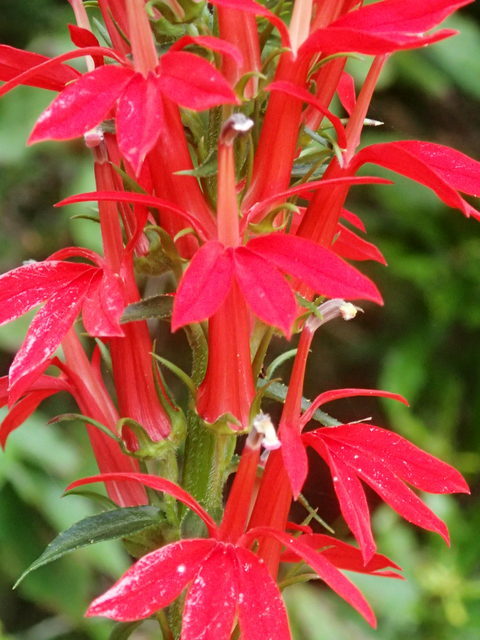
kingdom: Plantae
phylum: Tracheophyta
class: Magnoliopsida
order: Asterales
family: Campanulaceae
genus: Lobelia
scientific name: Lobelia cardinalis
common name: Cardinal flower
